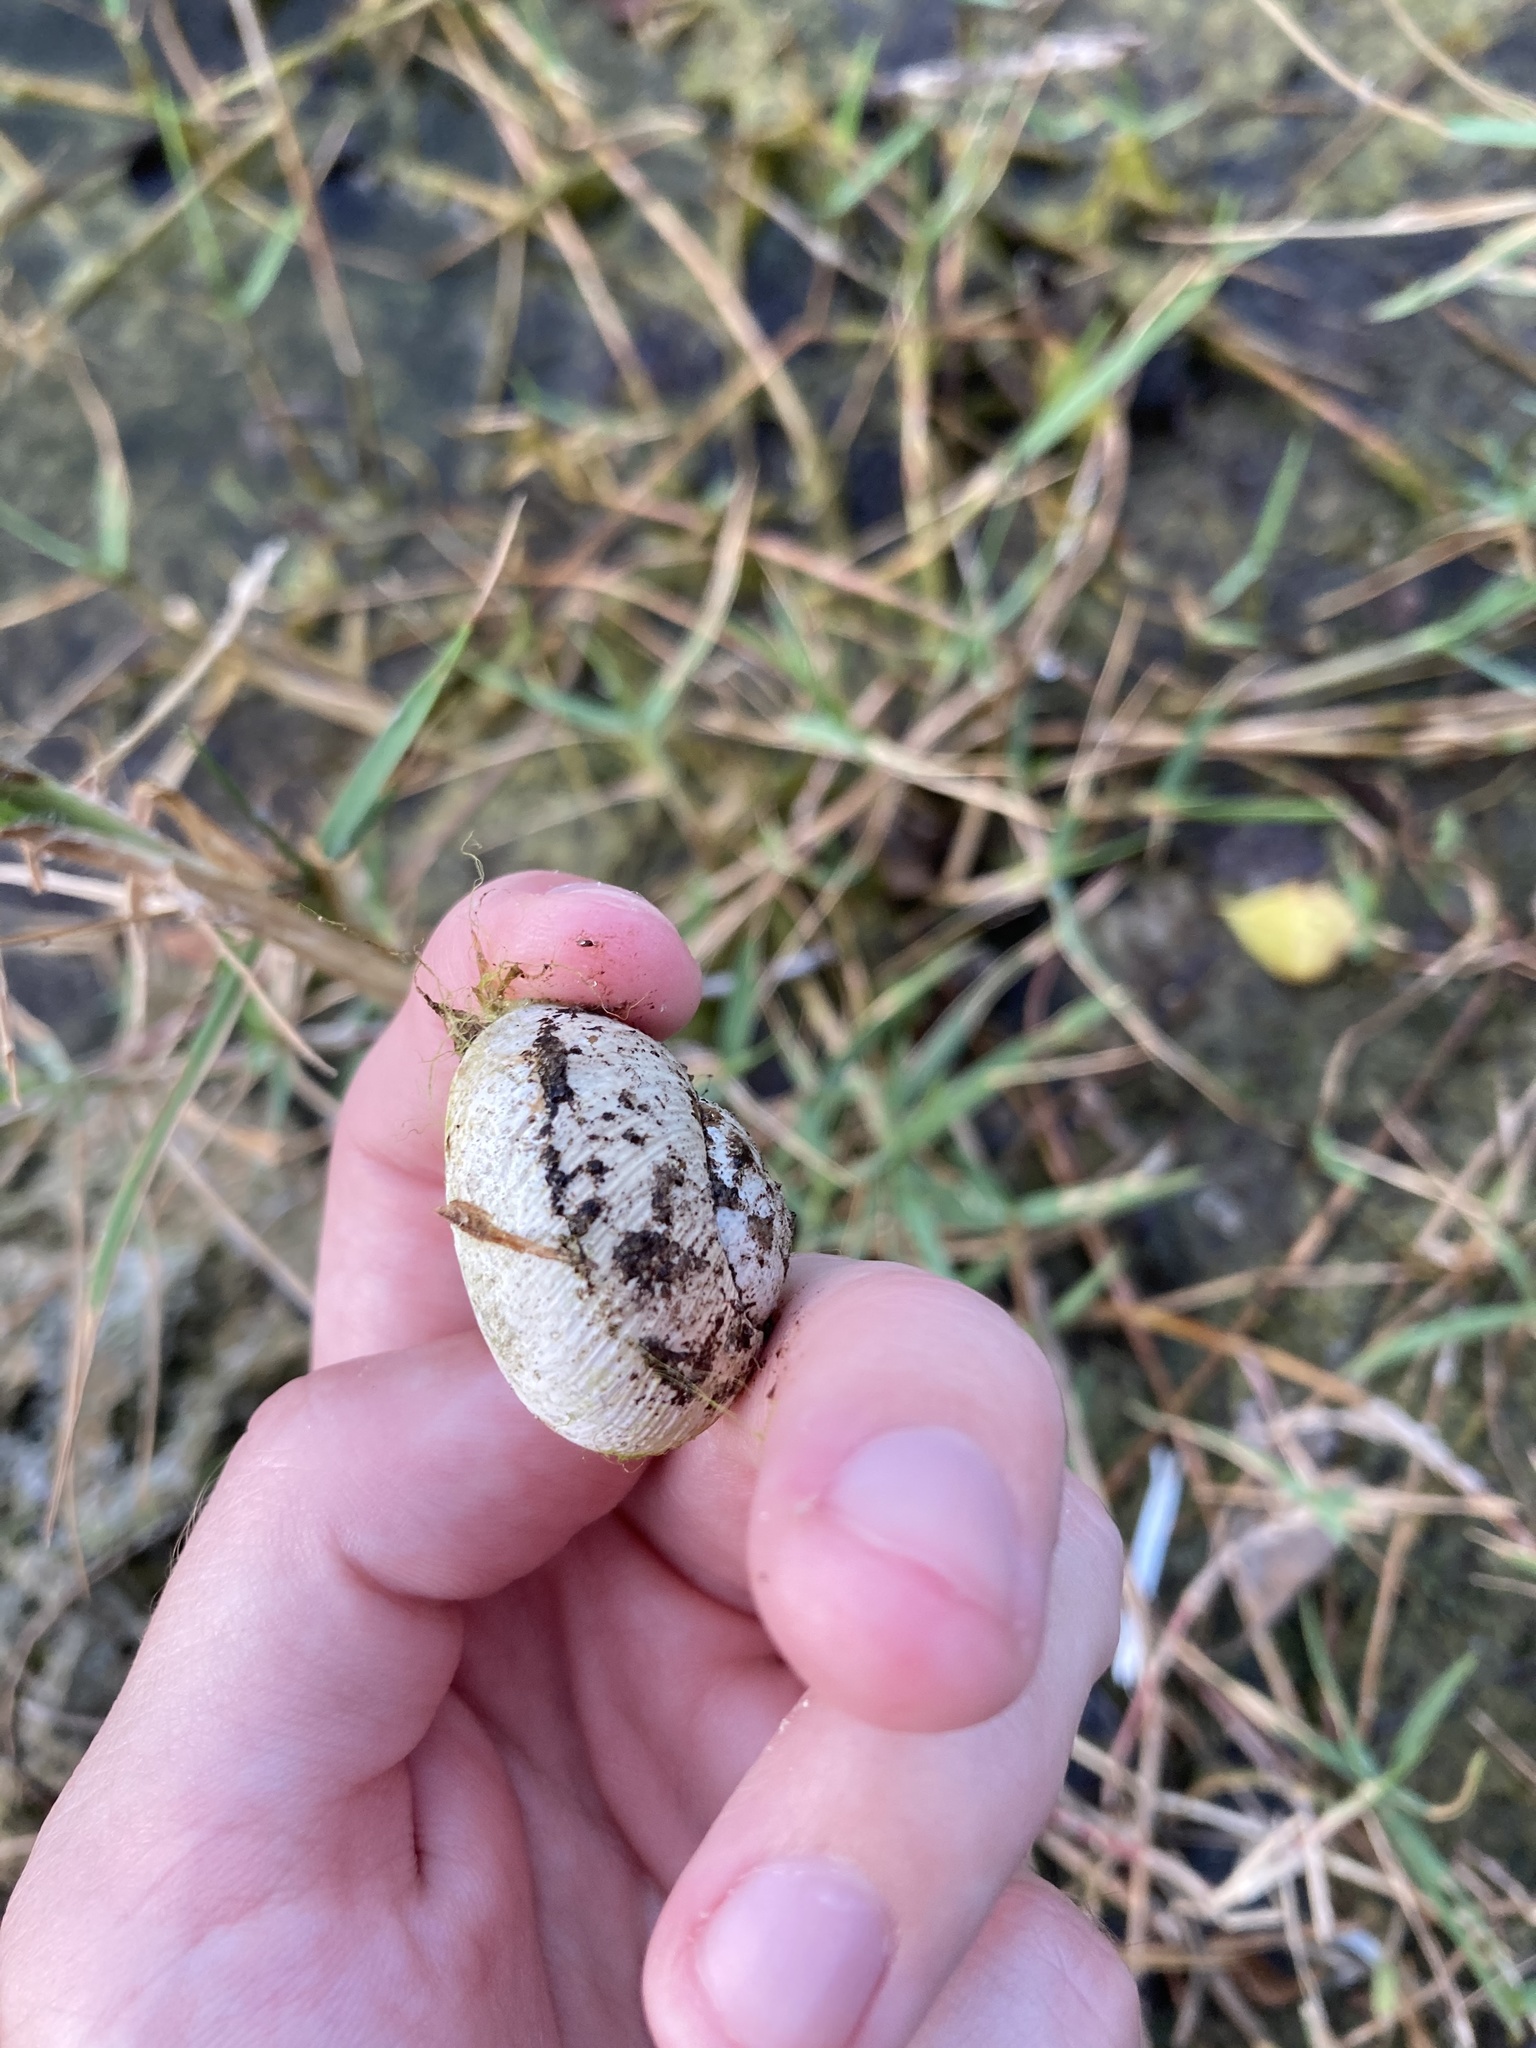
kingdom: Animalia
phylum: Mollusca
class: Gastropoda
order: Stylommatophora
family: Zachrysiidae
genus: Zachrysia
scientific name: Zachrysia provisoria
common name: Garden zachrysia
